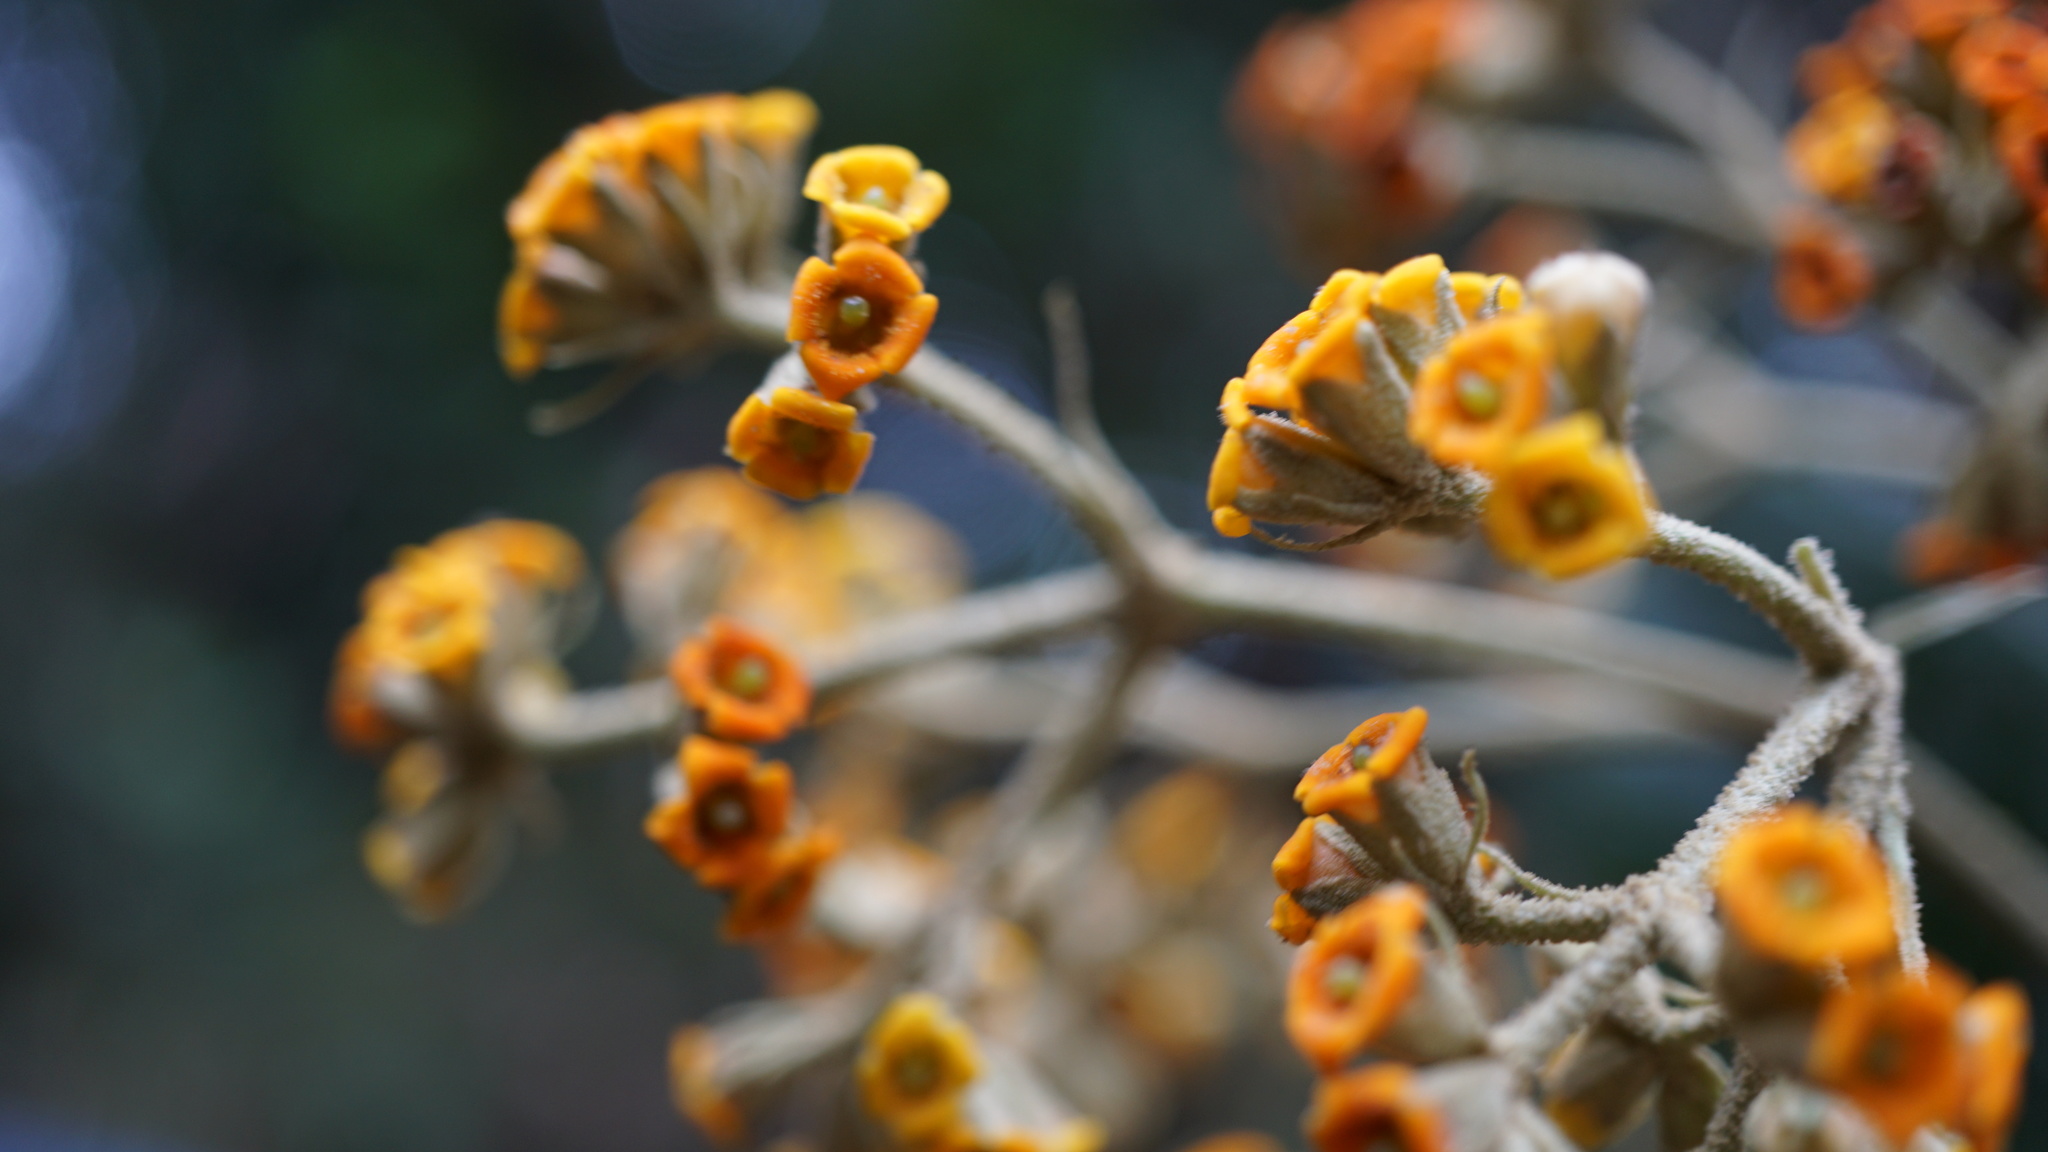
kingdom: Plantae
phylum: Tracheophyta
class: Magnoliopsida
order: Lamiales
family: Scrophulariaceae
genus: Buddleja
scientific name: Buddleja incana
